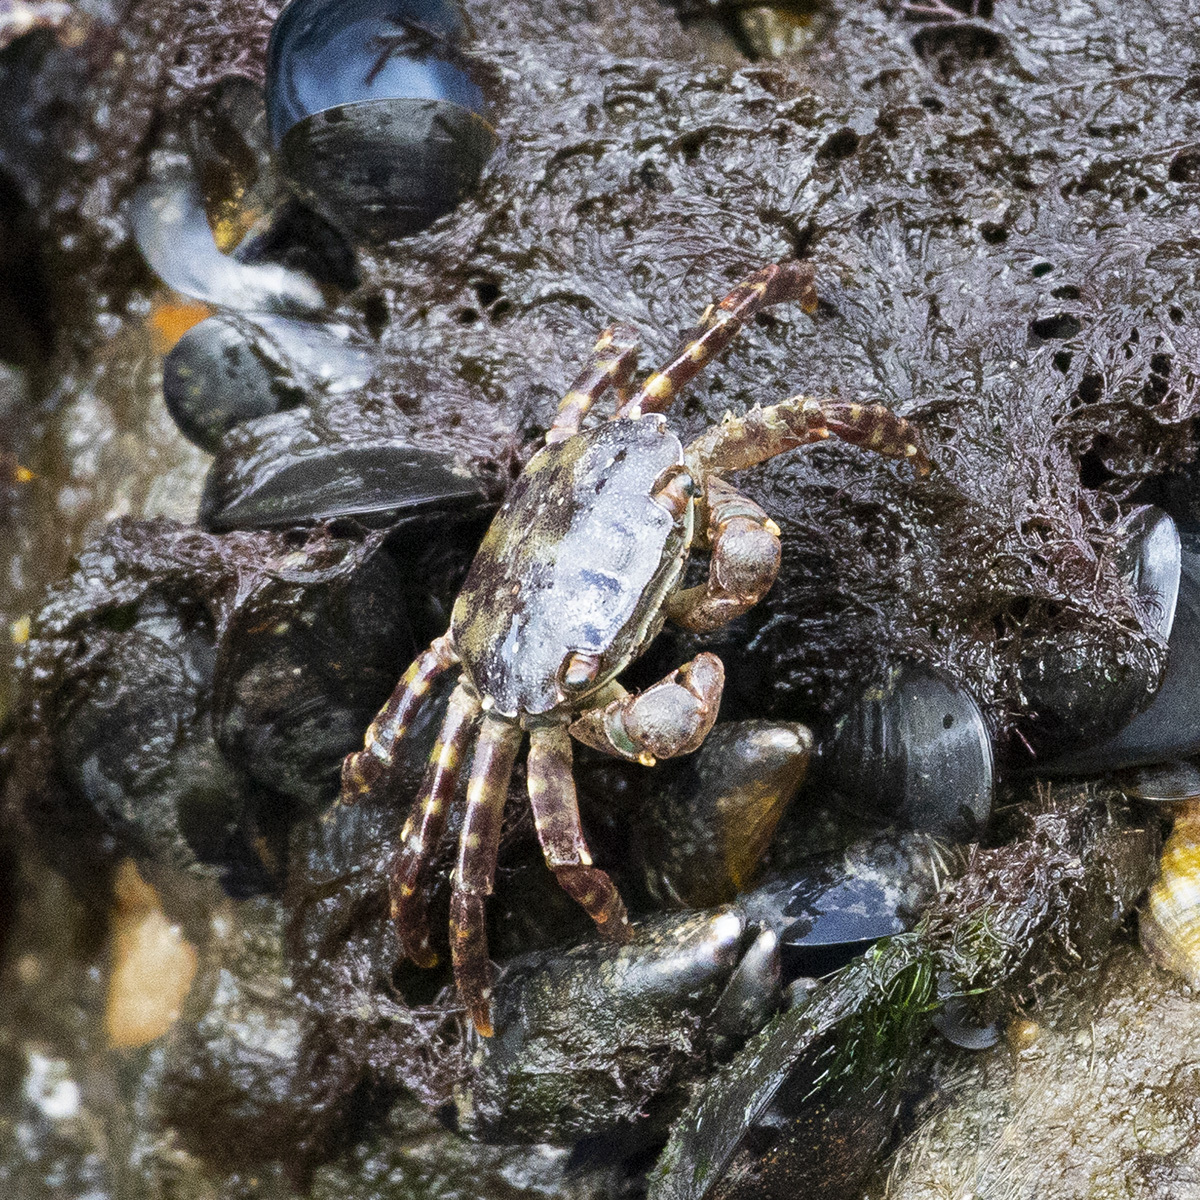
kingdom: Animalia
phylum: Arthropoda
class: Malacostraca
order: Decapoda
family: Varunidae
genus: Hemigrapsus
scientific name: Hemigrapsus sanguineus
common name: Asian shore crab
